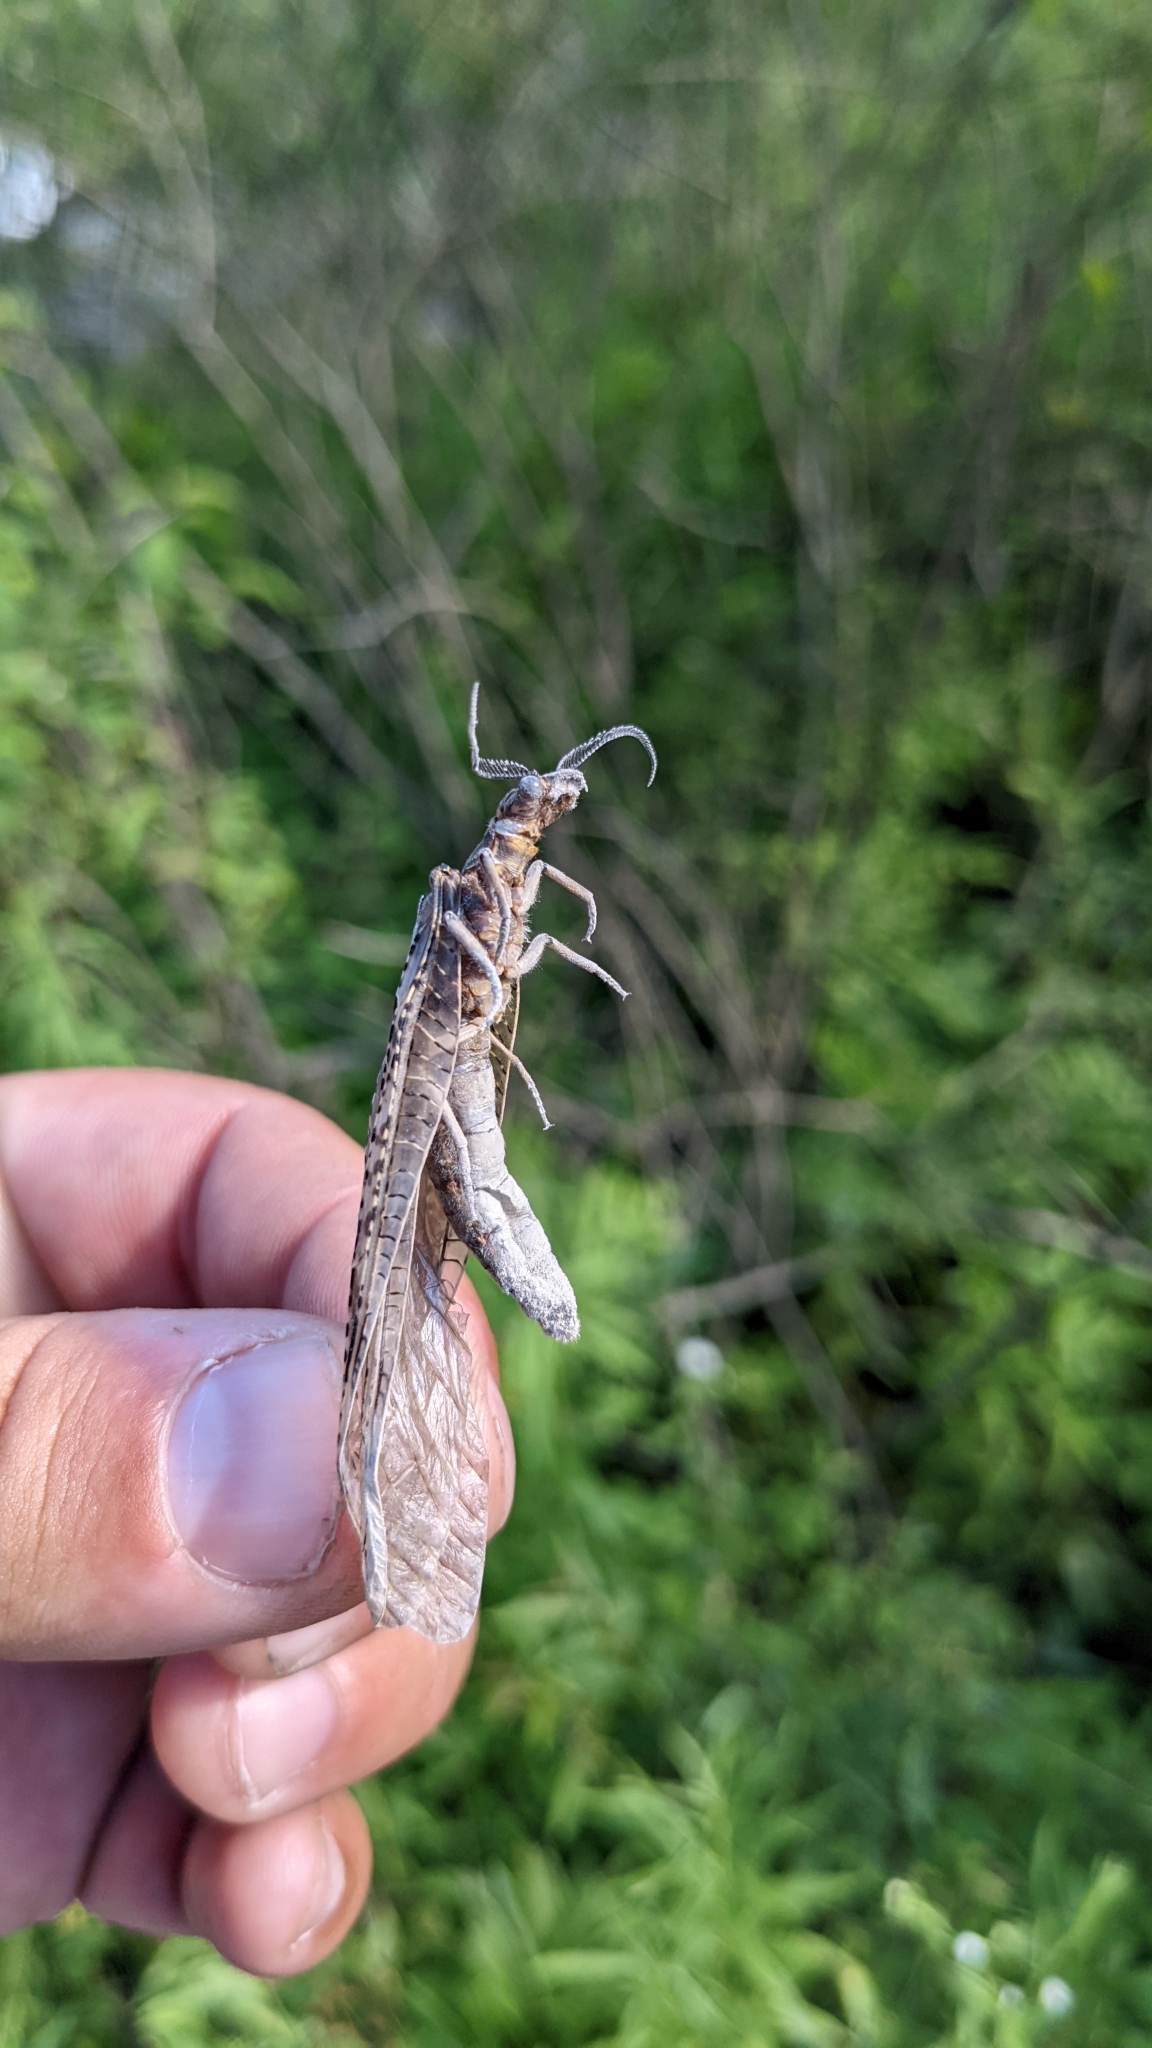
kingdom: Animalia
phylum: Arthropoda
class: Insecta
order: Megaloptera
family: Corydalidae
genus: Chauliodes
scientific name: Chauliodes pectinicornis
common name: Summer fishfly
